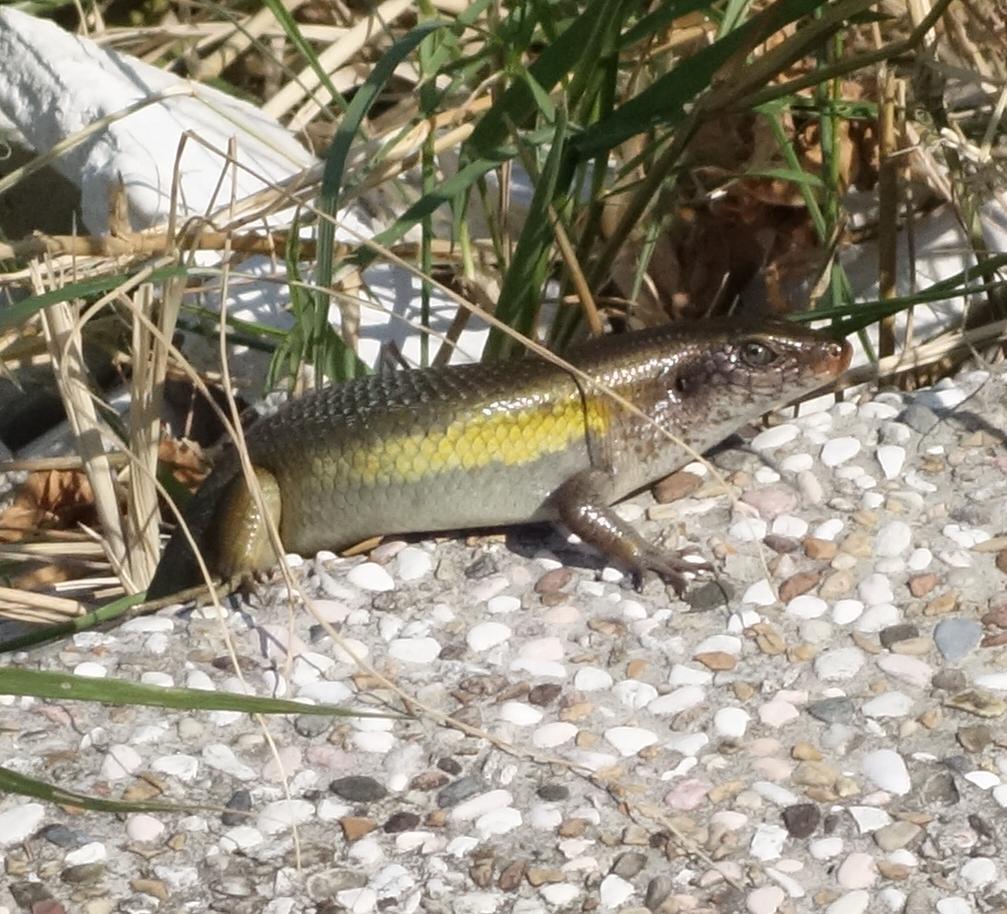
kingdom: Animalia
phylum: Chordata
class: Squamata
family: Scincidae
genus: Eutropis
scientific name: Eutropis multifasciata
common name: Common mabuya
